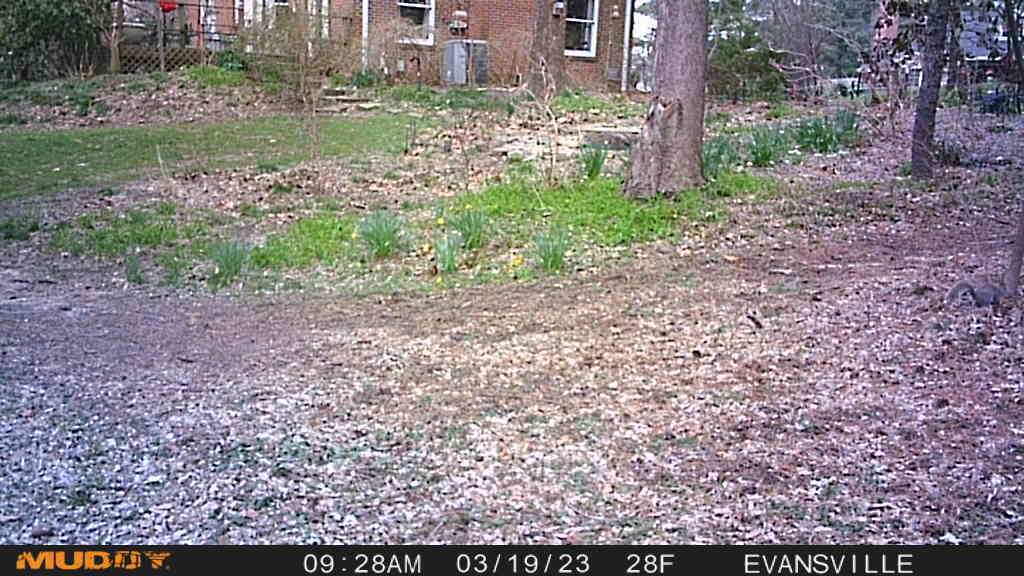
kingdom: Animalia
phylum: Chordata
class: Mammalia
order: Rodentia
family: Sciuridae
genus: Sciurus
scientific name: Sciurus carolinensis
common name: Eastern gray squirrel
